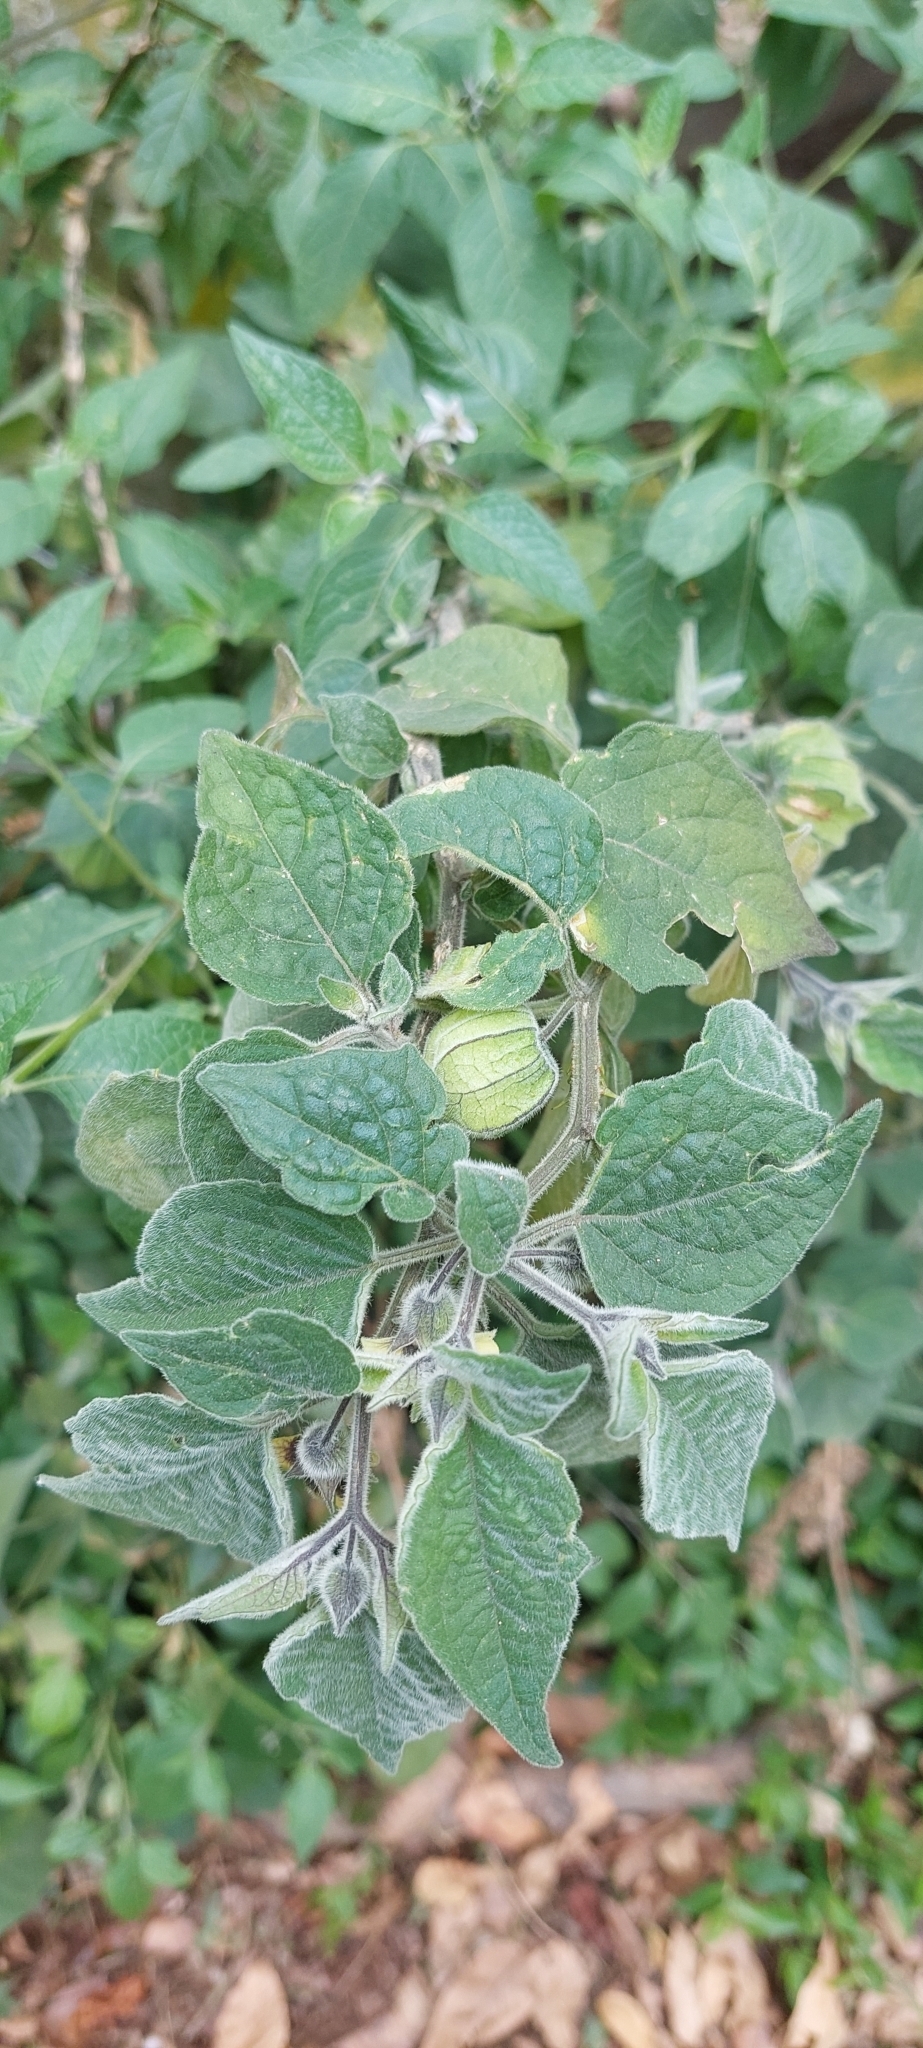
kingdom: Plantae
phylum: Tracheophyta
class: Magnoliopsida
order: Solanales
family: Solanaceae
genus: Physalis
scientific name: Physalis peruviana
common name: Cape-gooseberry
